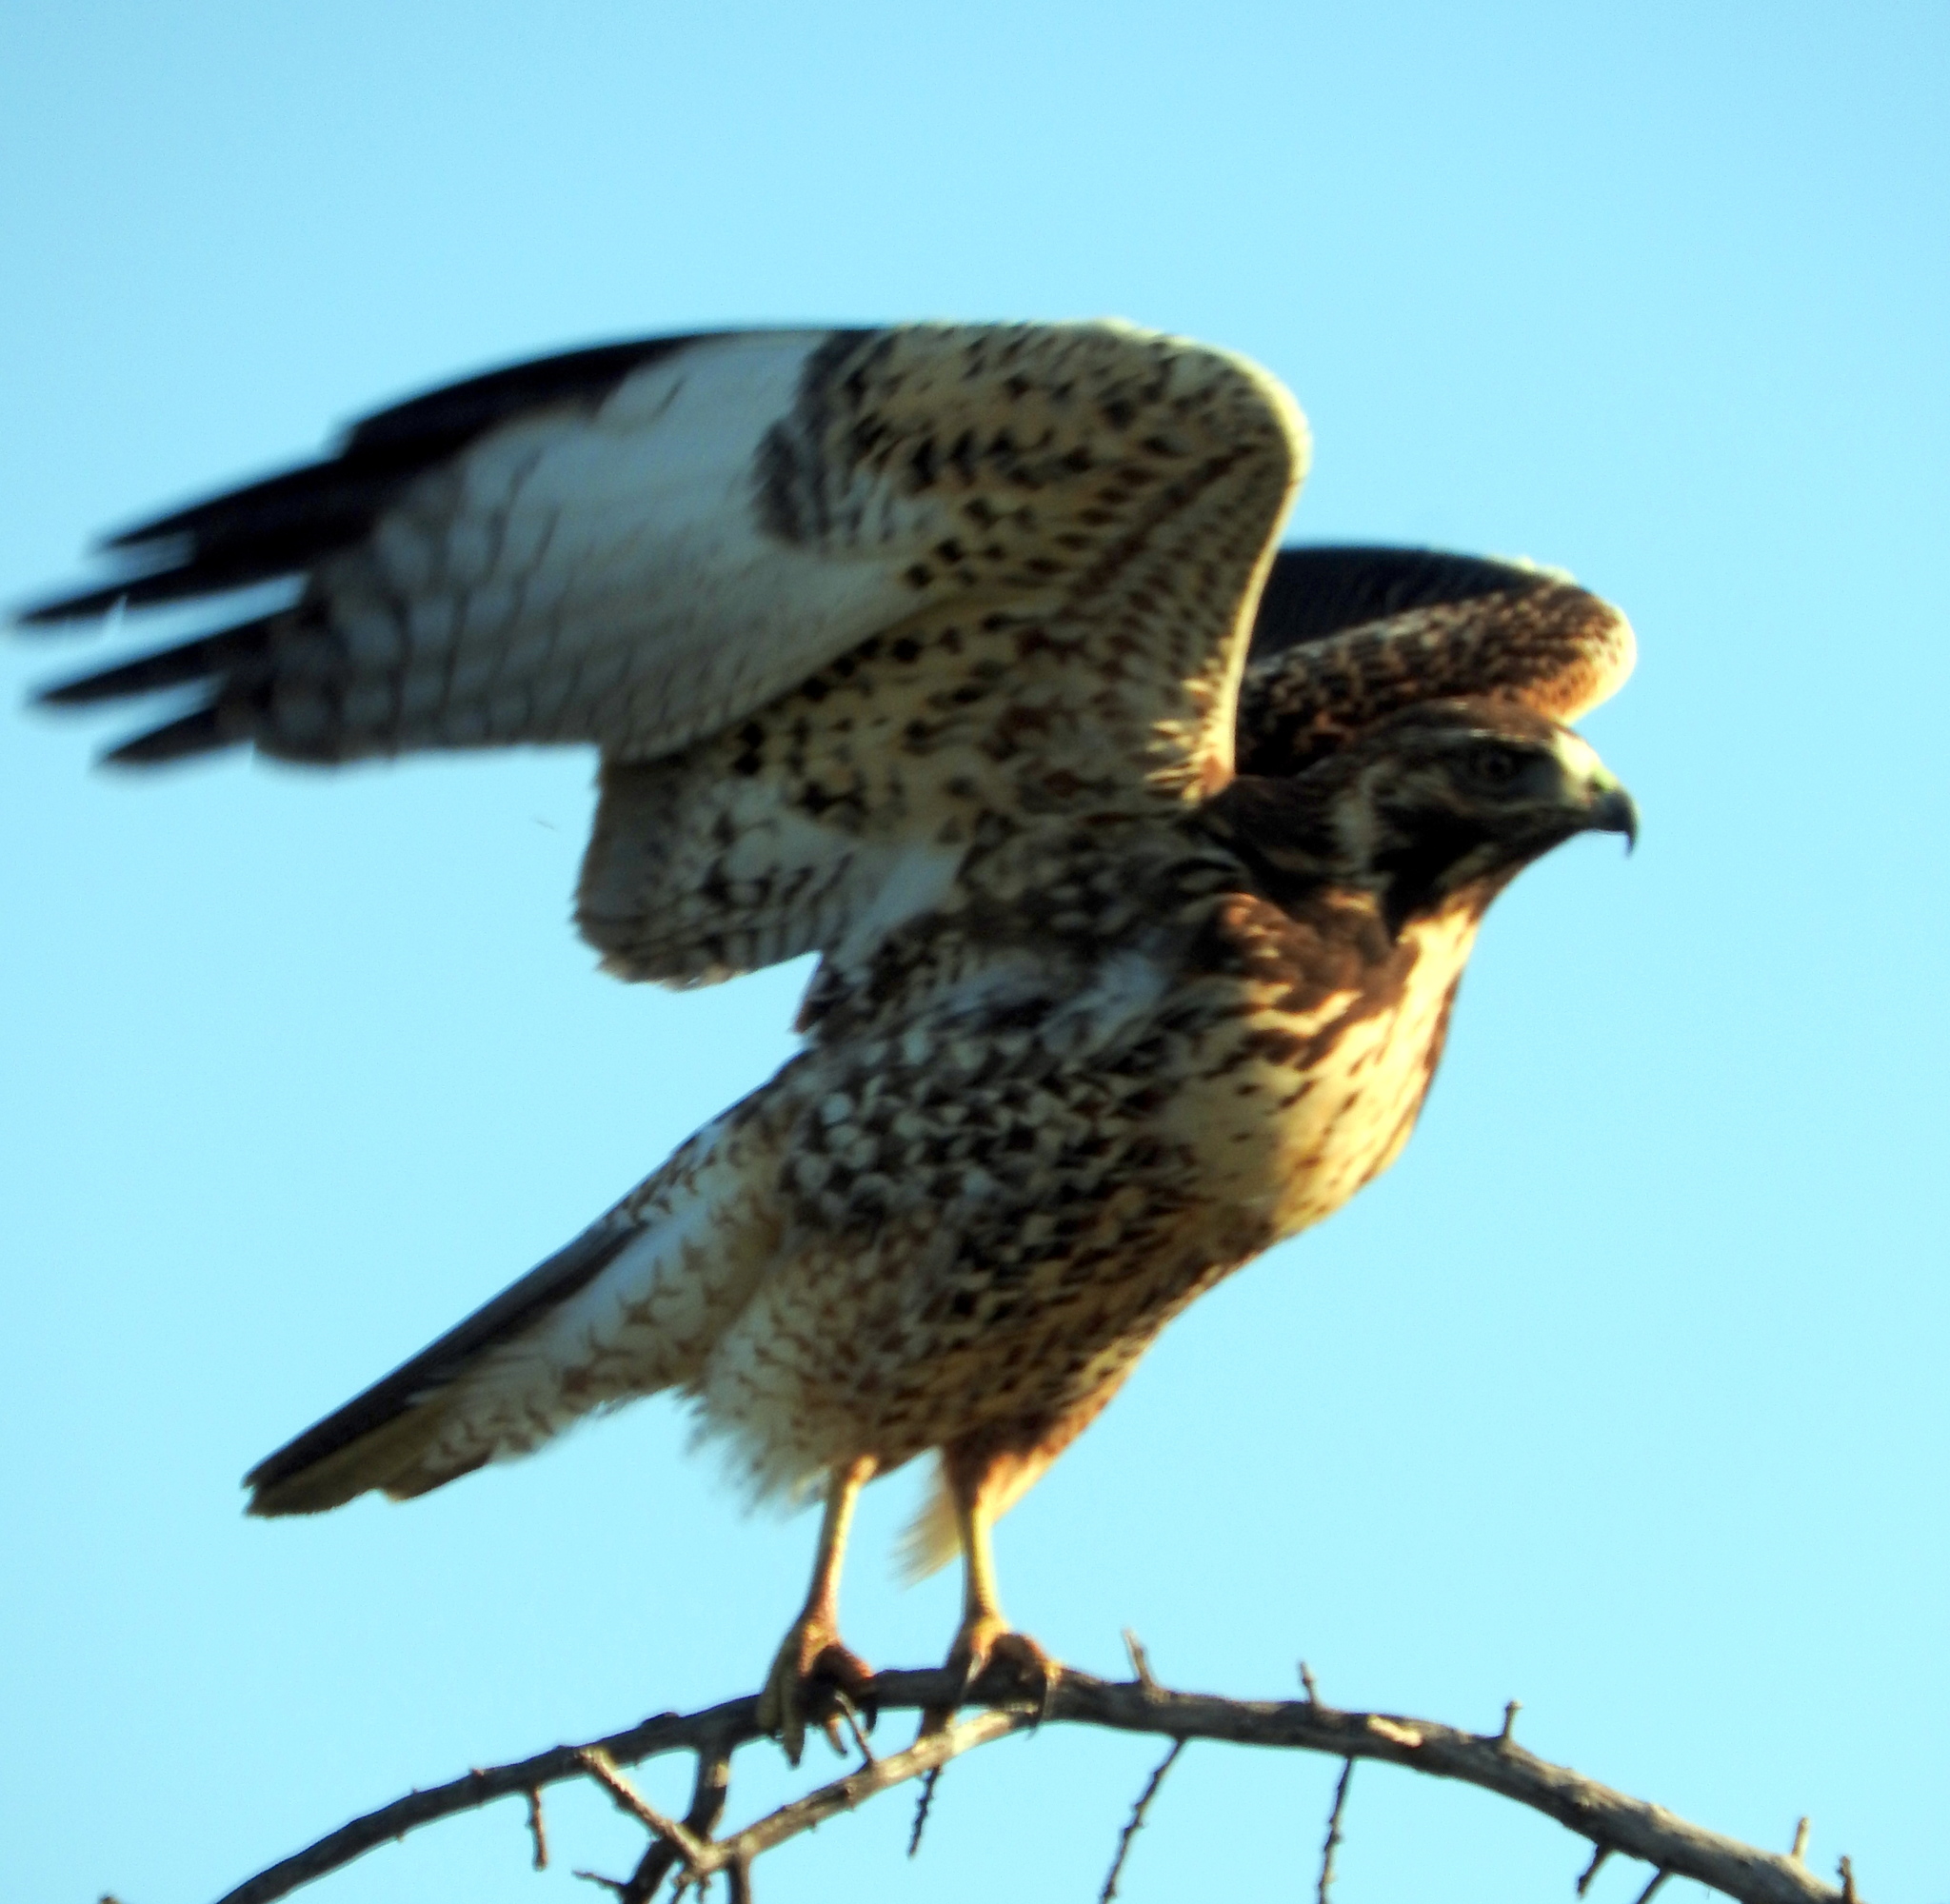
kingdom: Animalia
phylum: Chordata
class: Aves
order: Accipitriformes
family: Accipitridae
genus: Buteo
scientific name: Buteo polyosoma
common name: Variable hawk
